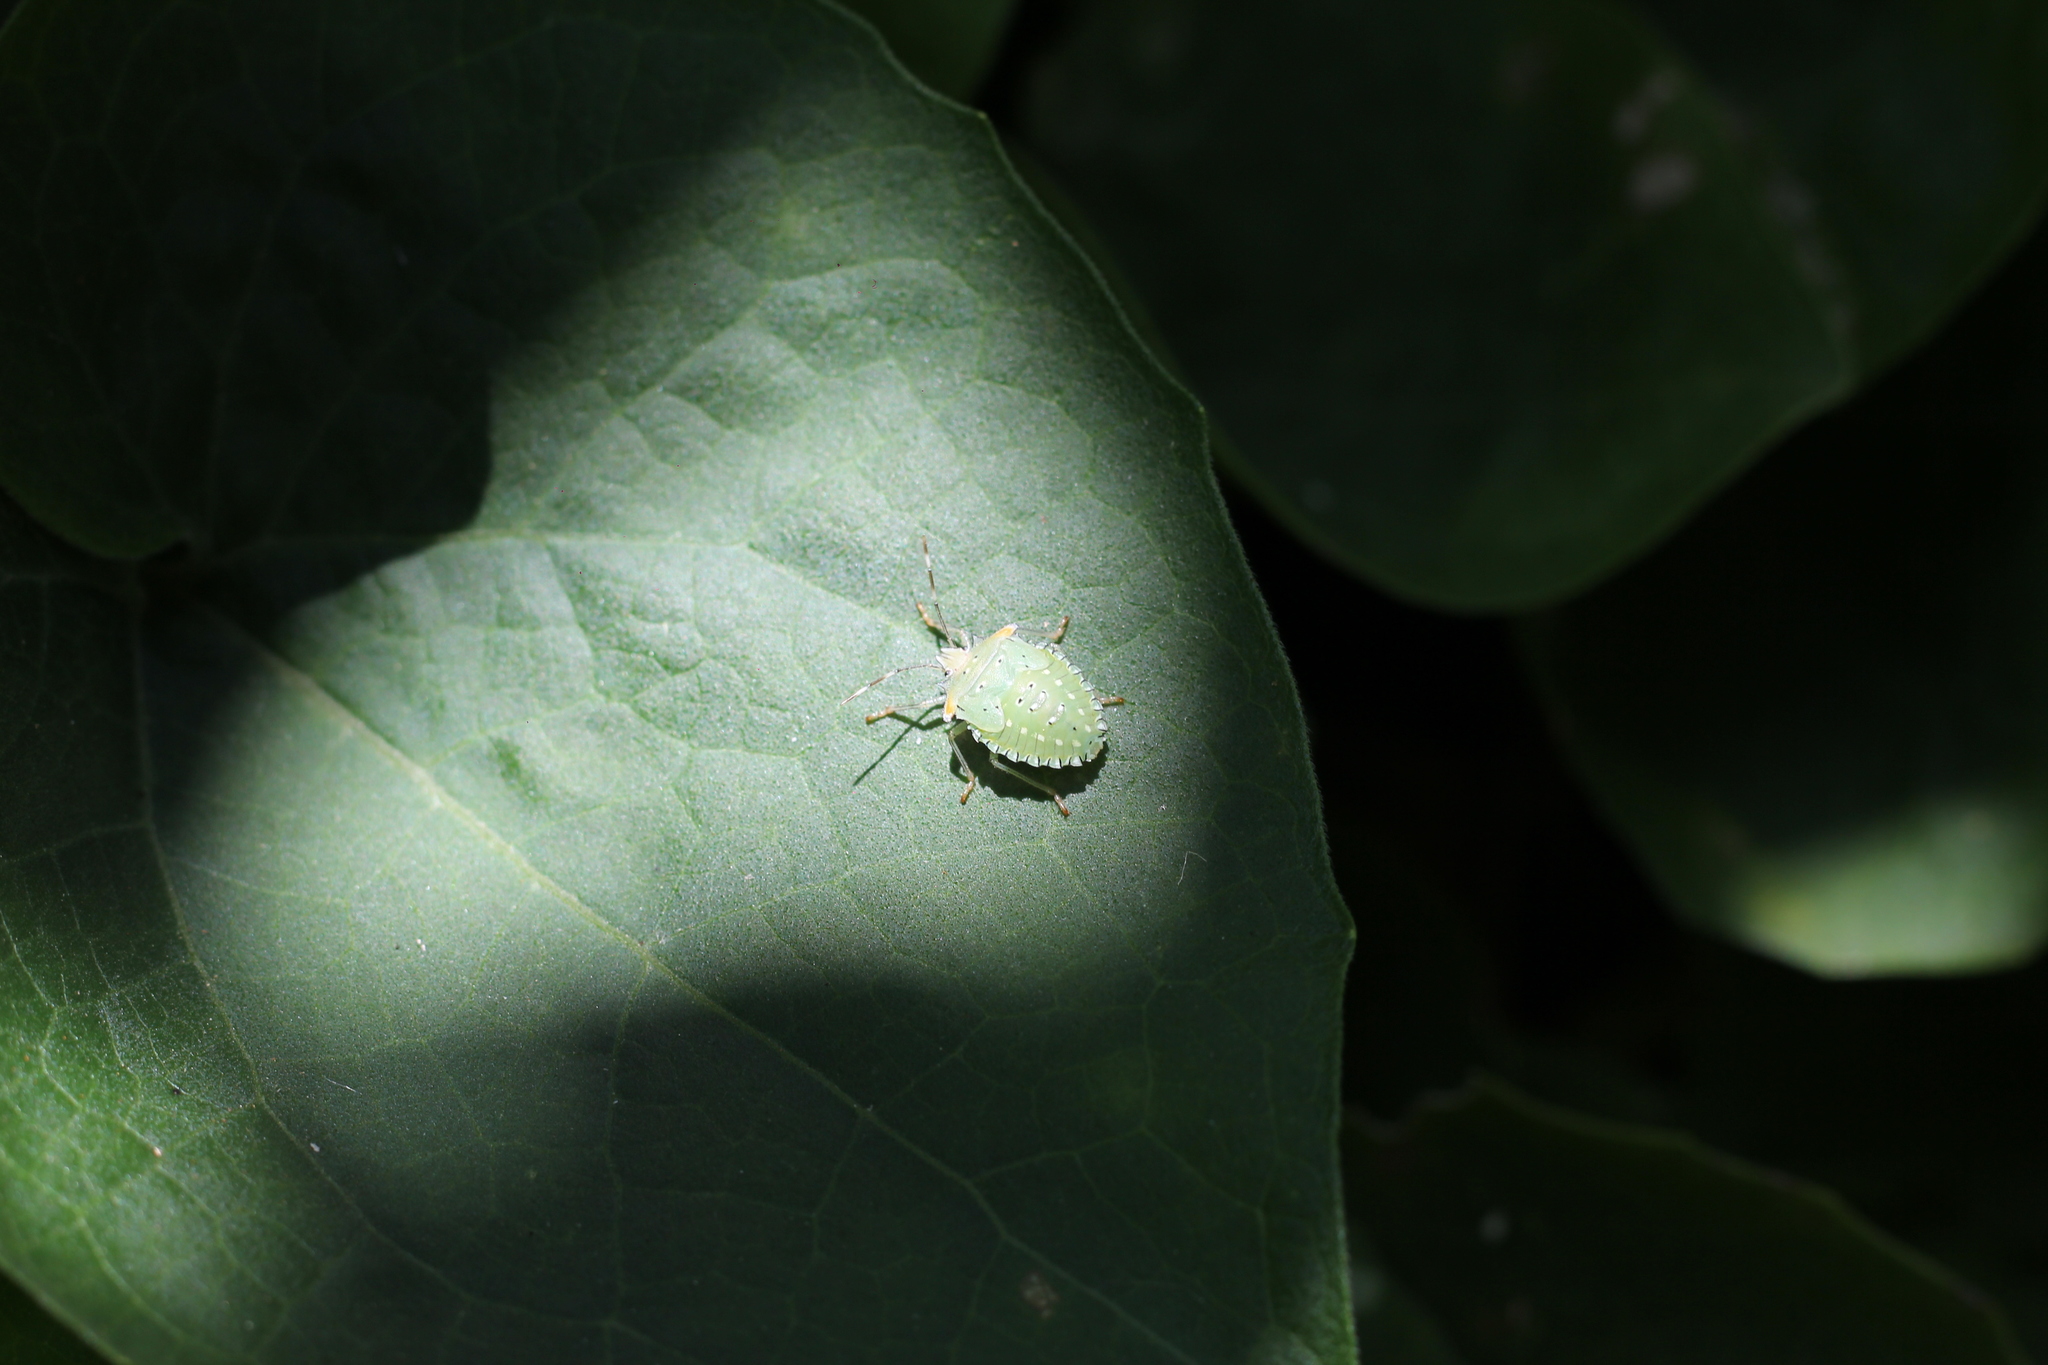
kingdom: Animalia
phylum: Arthropoda
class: Insecta
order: Hemiptera
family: Pentatomidae
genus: Arvelius
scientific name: Arvelius albopunctatus
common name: Tomato stink bug
